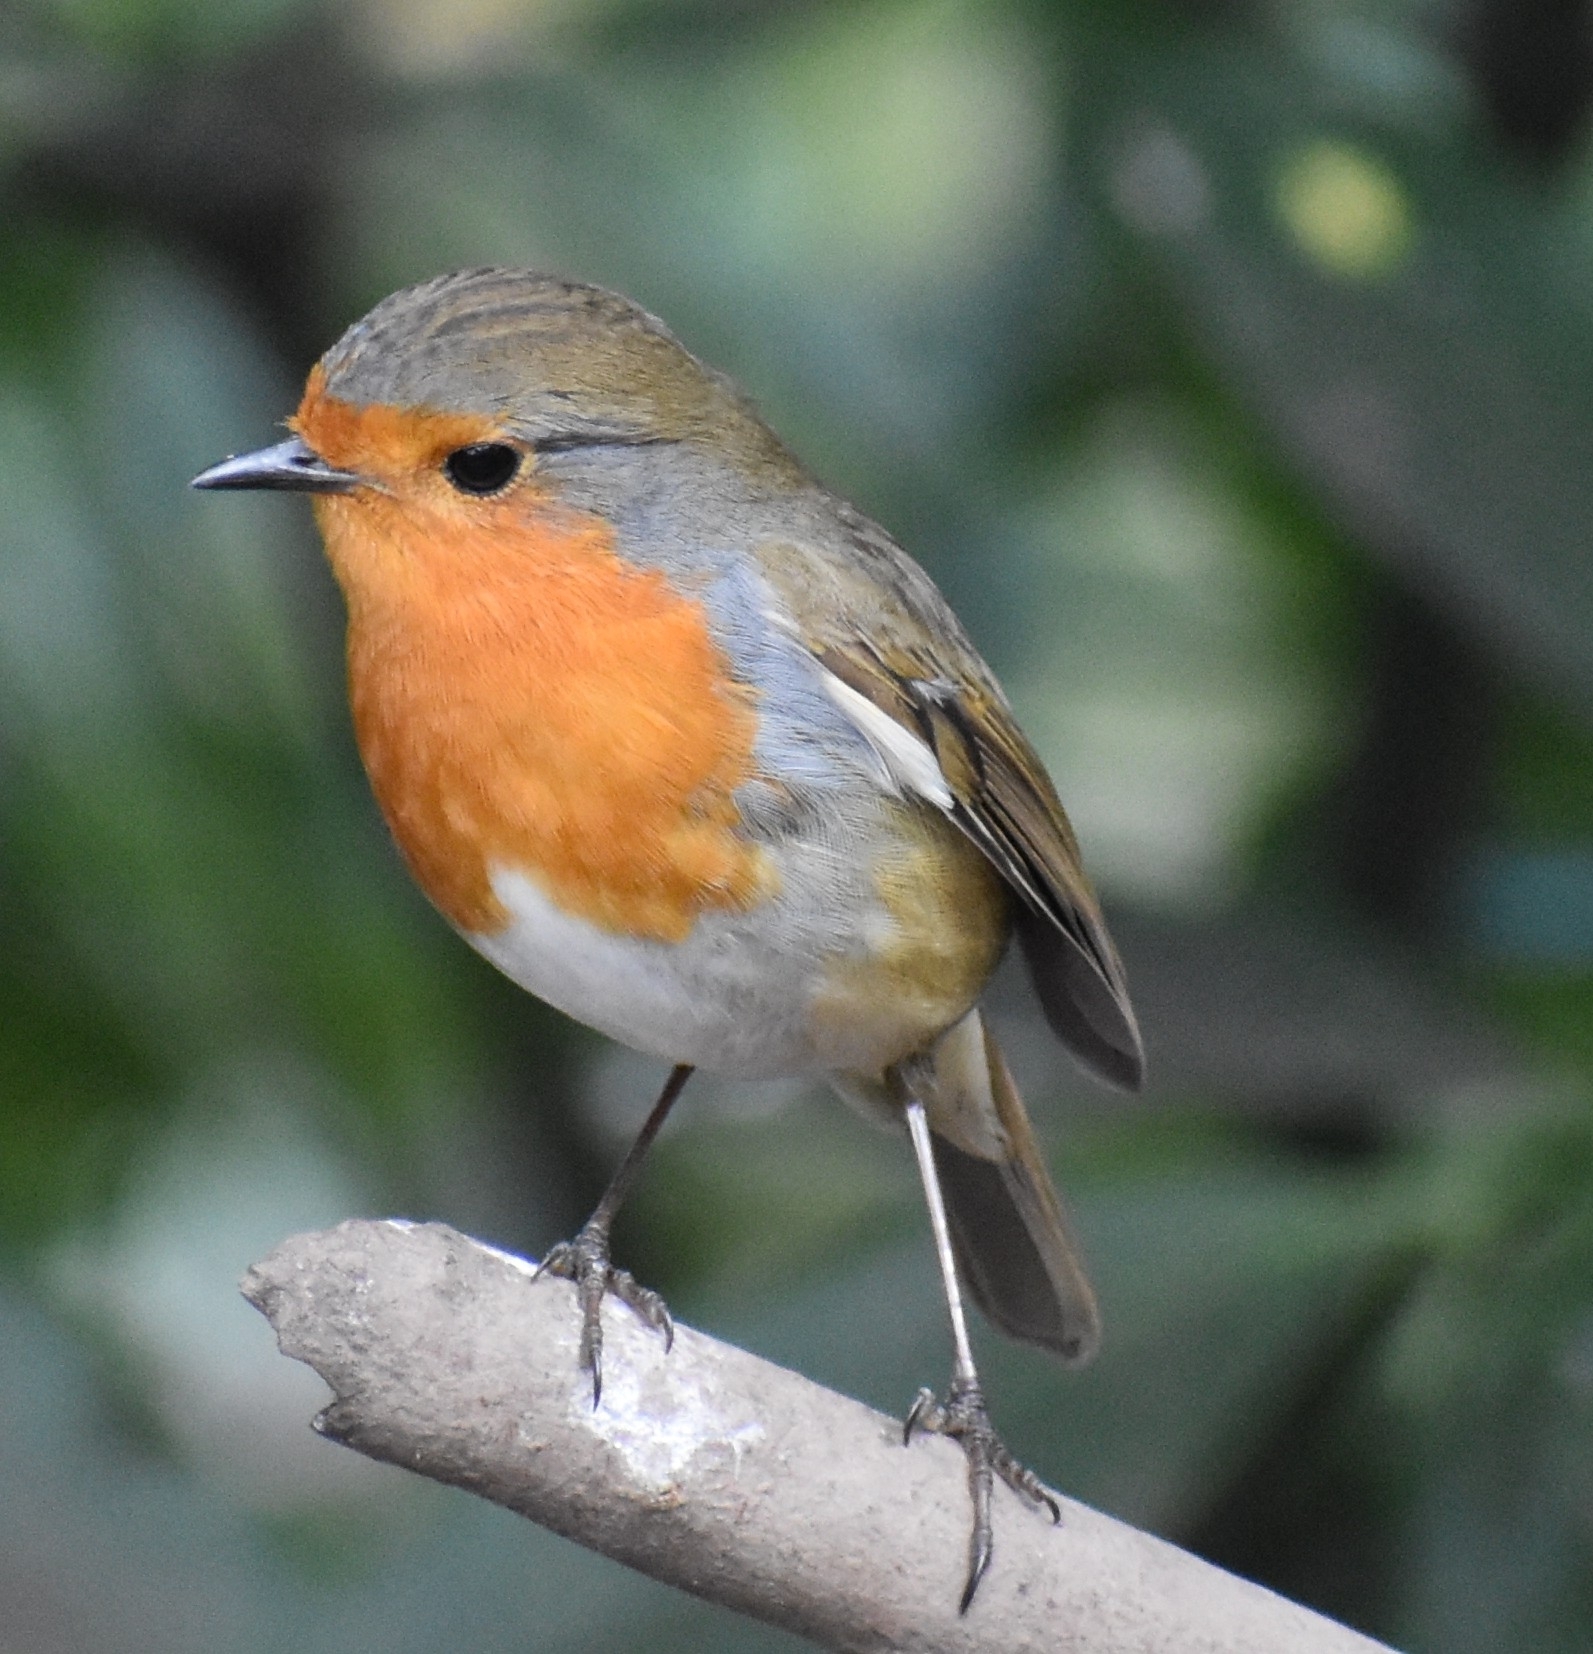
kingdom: Animalia
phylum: Chordata
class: Aves
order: Passeriformes
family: Muscicapidae
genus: Erithacus
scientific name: Erithacus rubecula
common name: European robin
